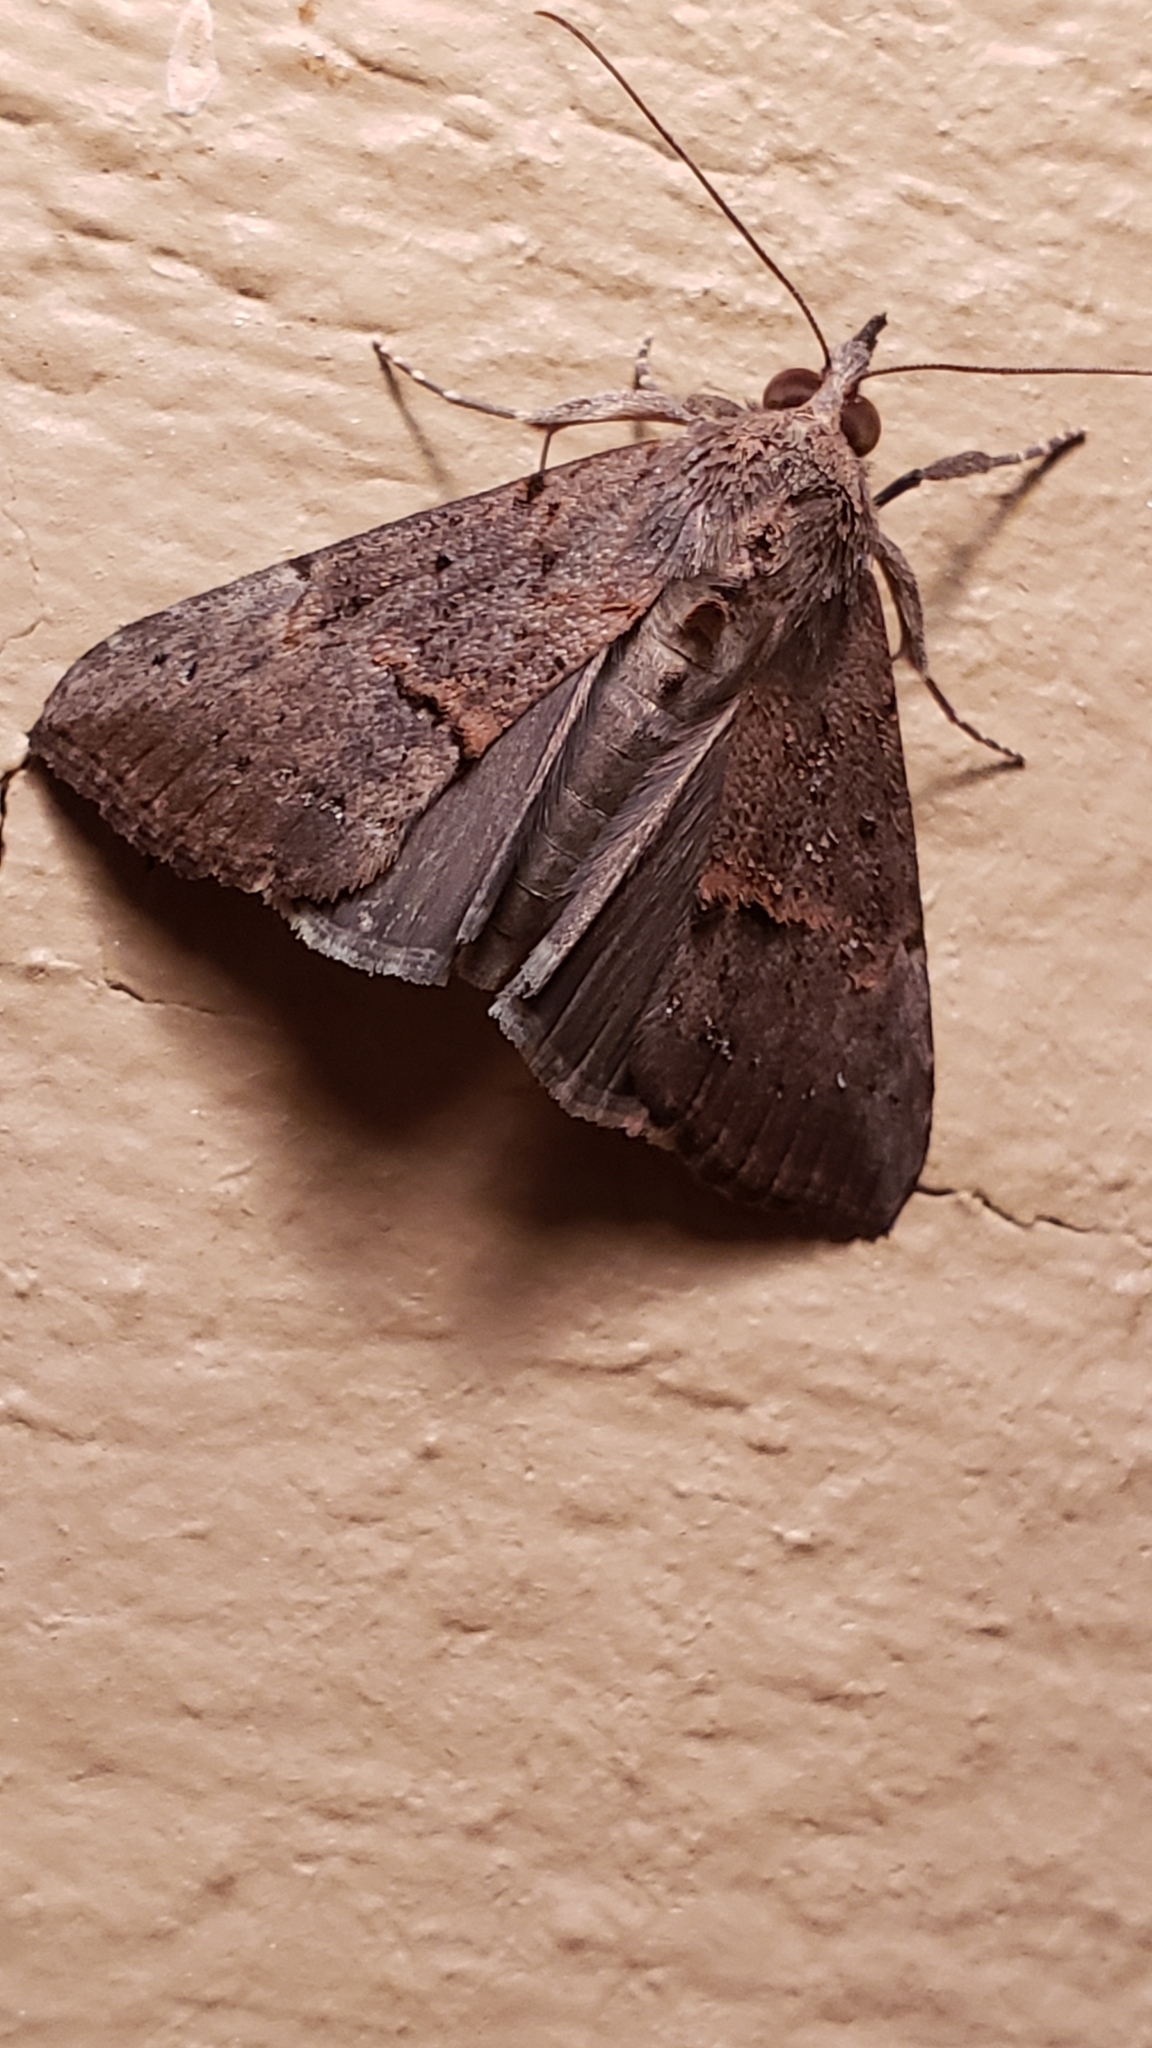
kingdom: Animalia
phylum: Arthropoda
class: Insecta
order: Lepidoptera
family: Erebidae
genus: Hypena
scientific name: Hypena scabra
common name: Green cloverworm
